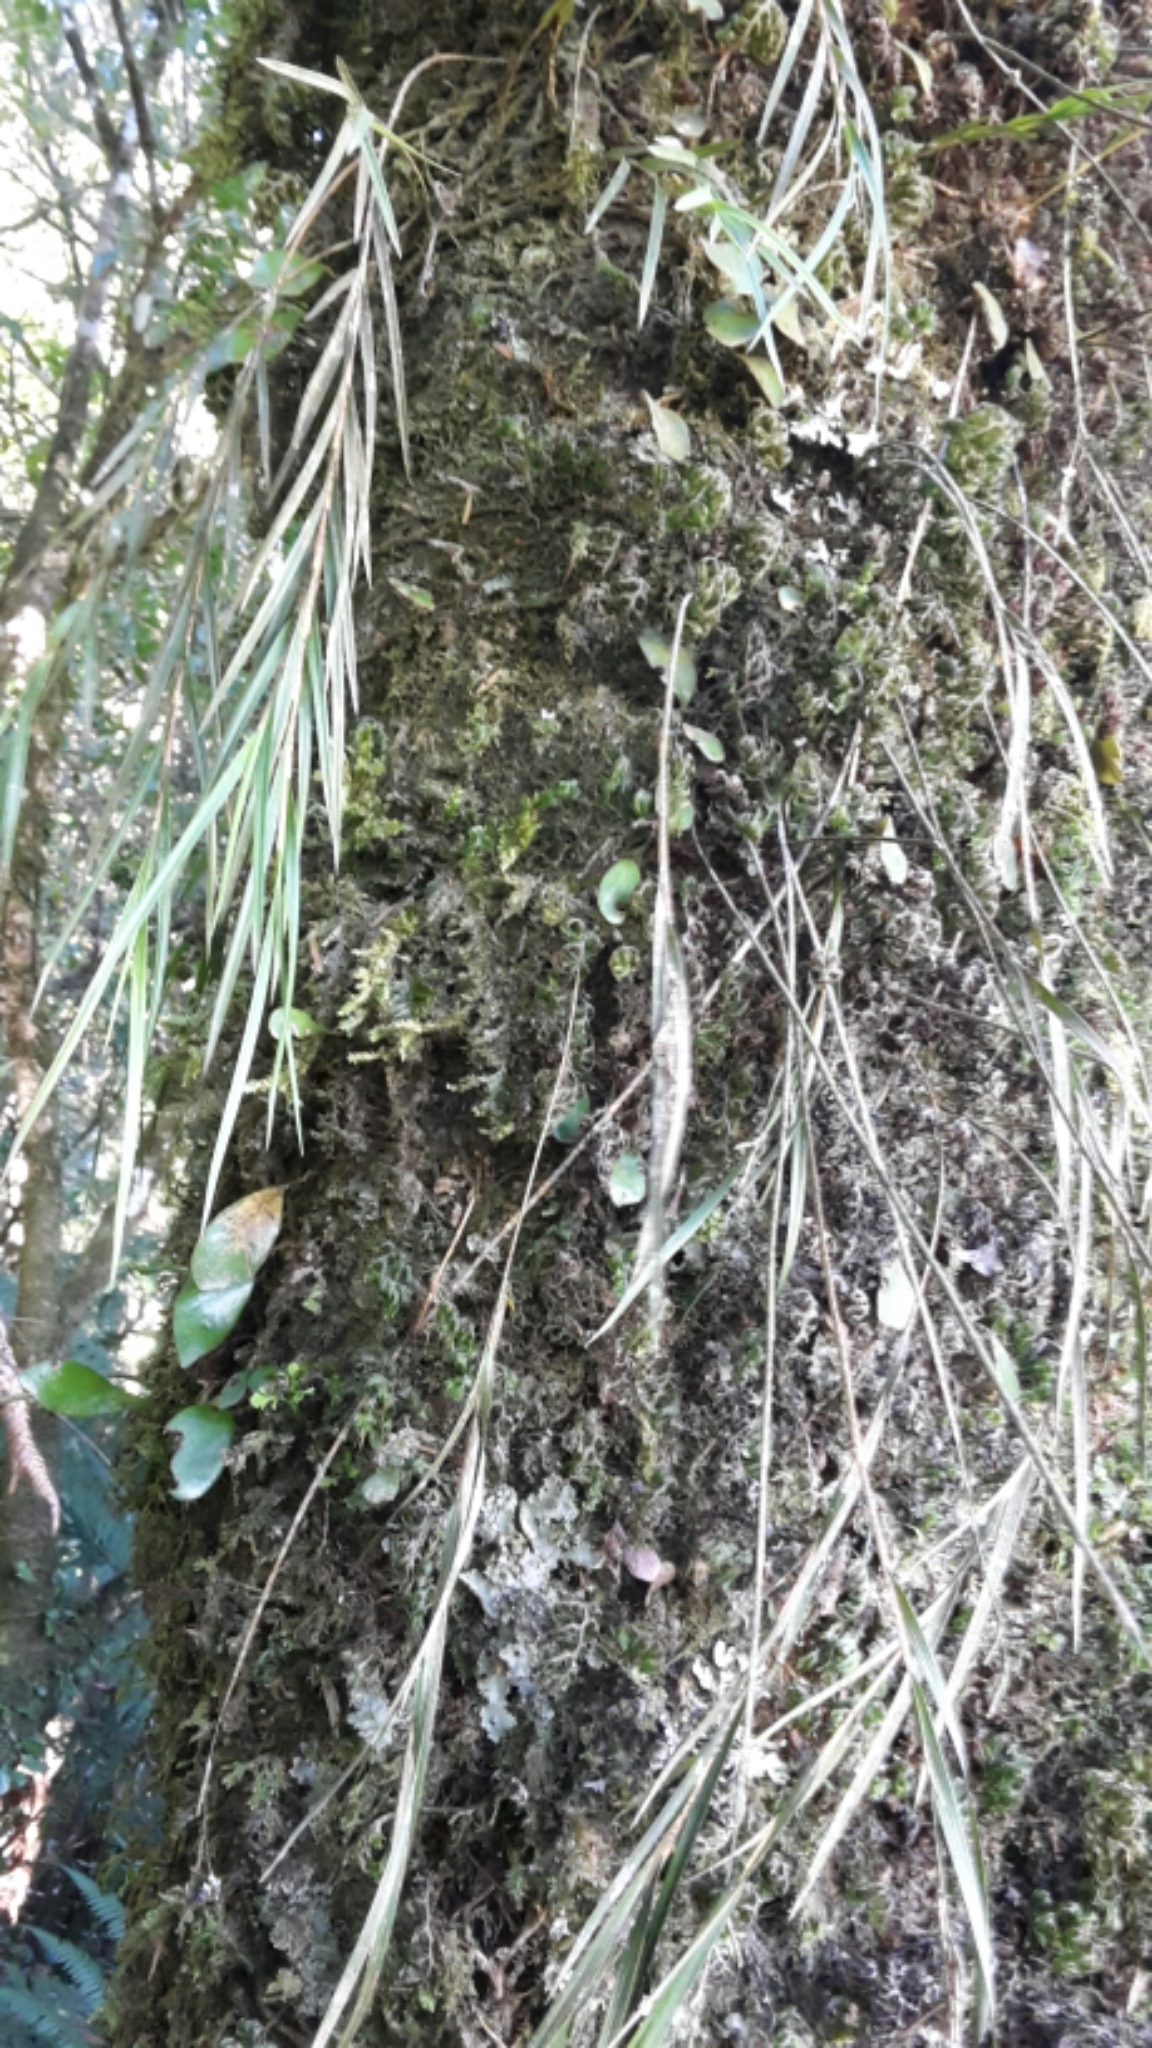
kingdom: Plantae
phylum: Tracheophyta
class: Liliopsida
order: Asparagales
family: Orchidaceae
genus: Earina
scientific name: Earina mucronata
